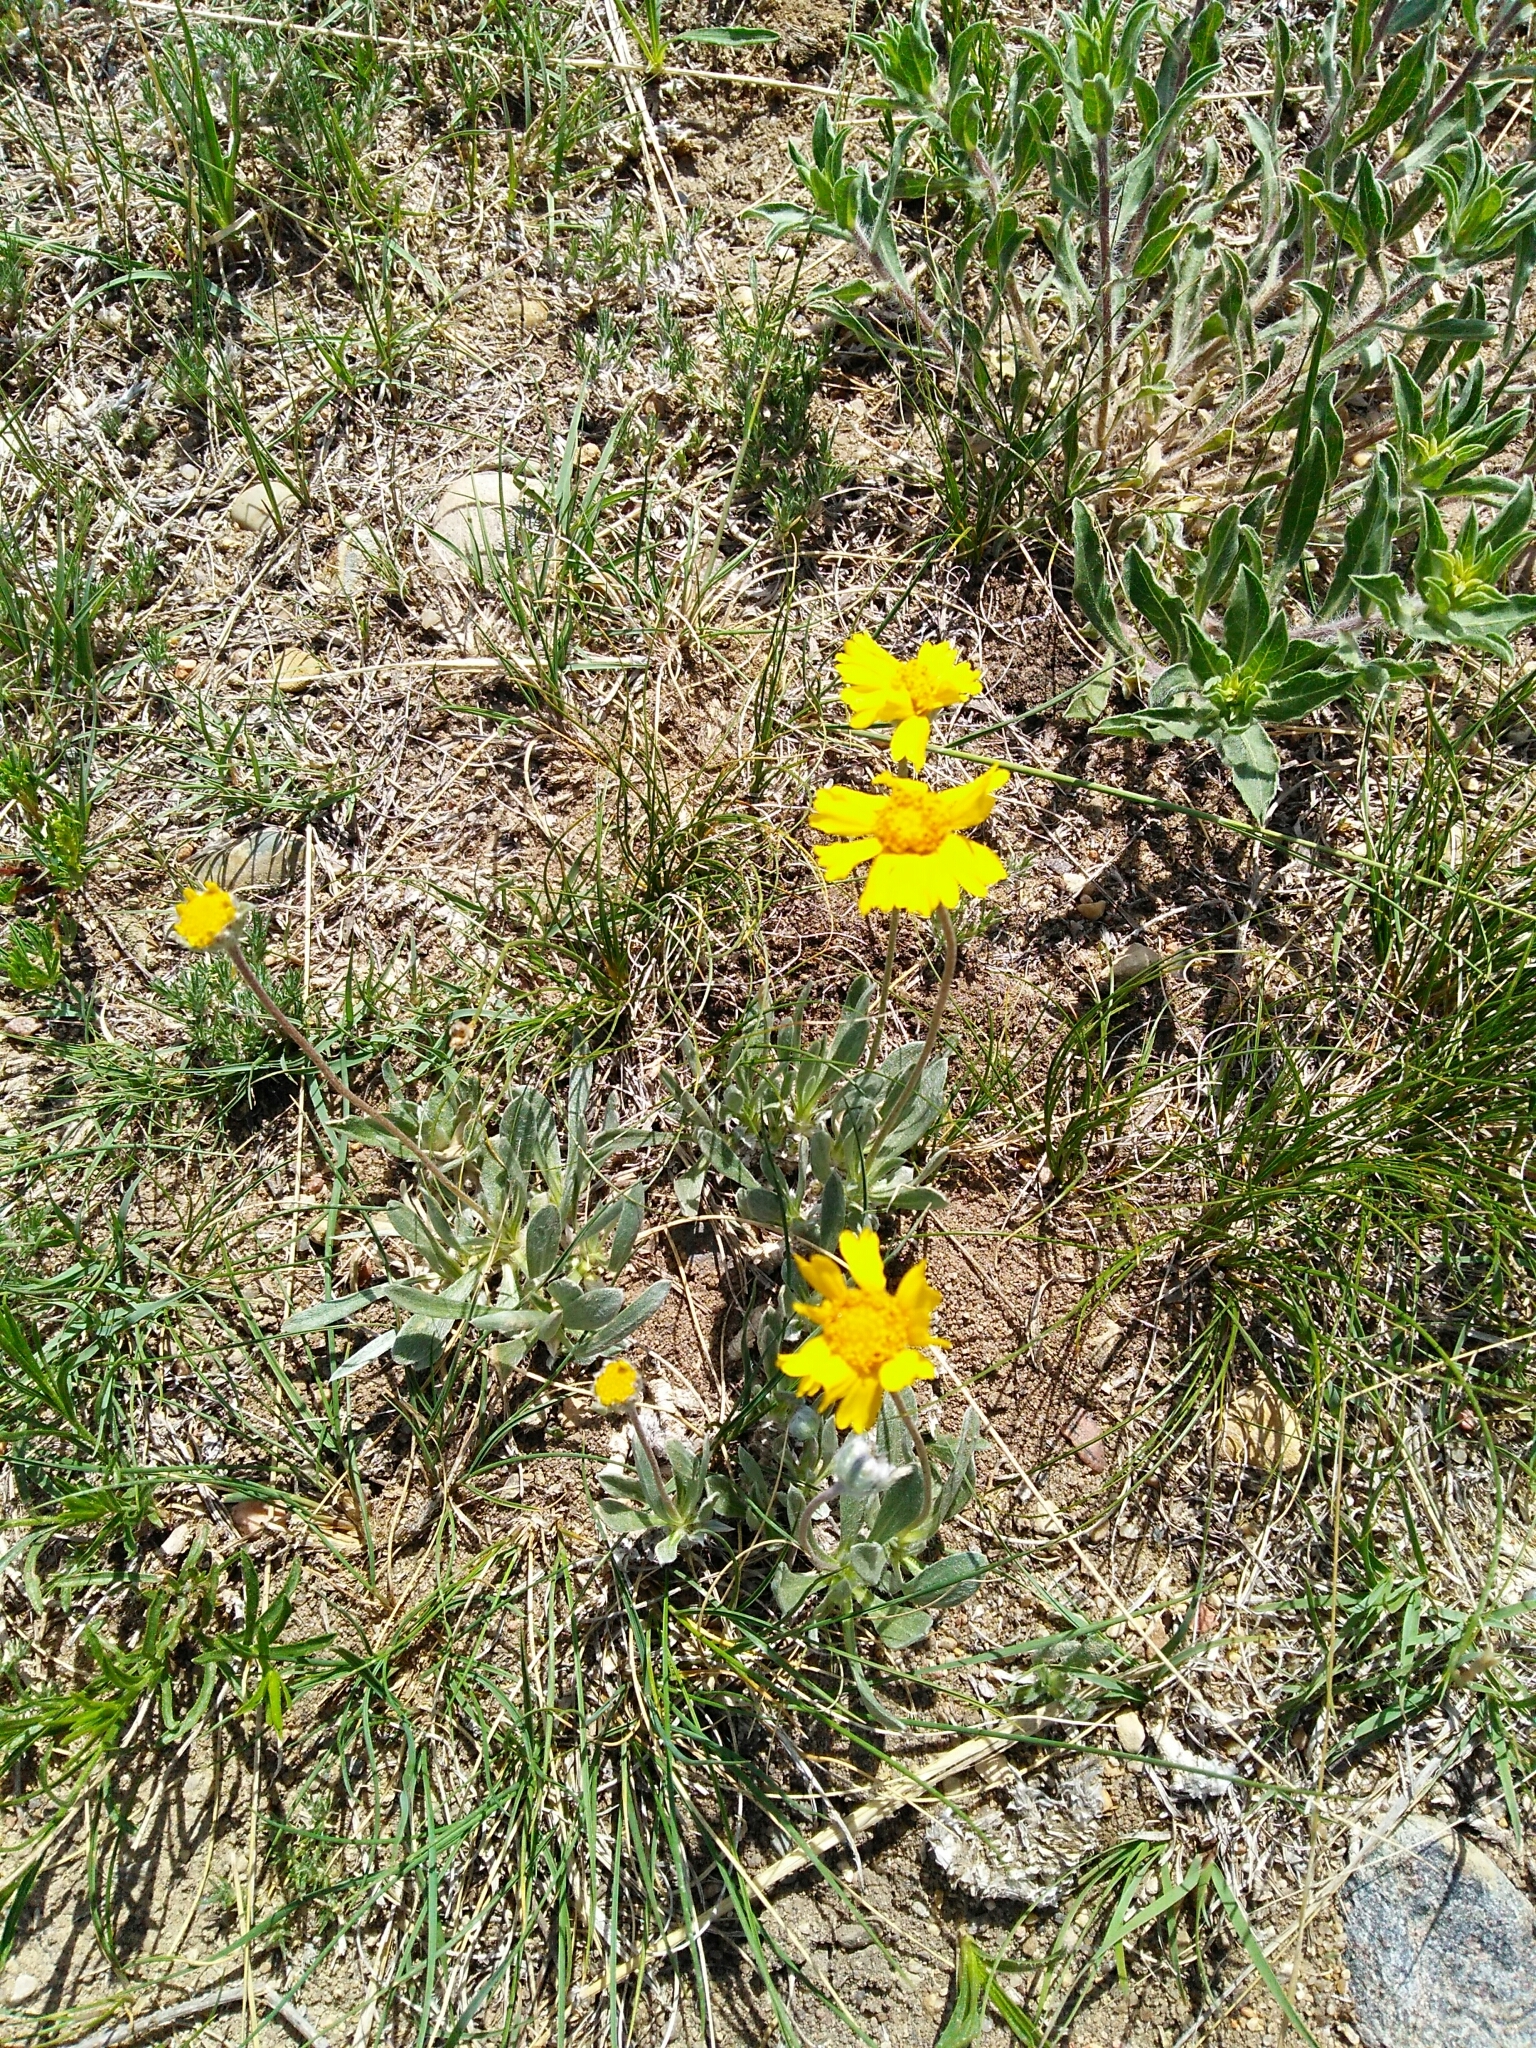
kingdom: Plantae
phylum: Tracheophyta
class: Magnoliopsida
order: Asterales
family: Asteraceae
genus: Packera
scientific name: Packera cana
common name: Woolly groundsel
